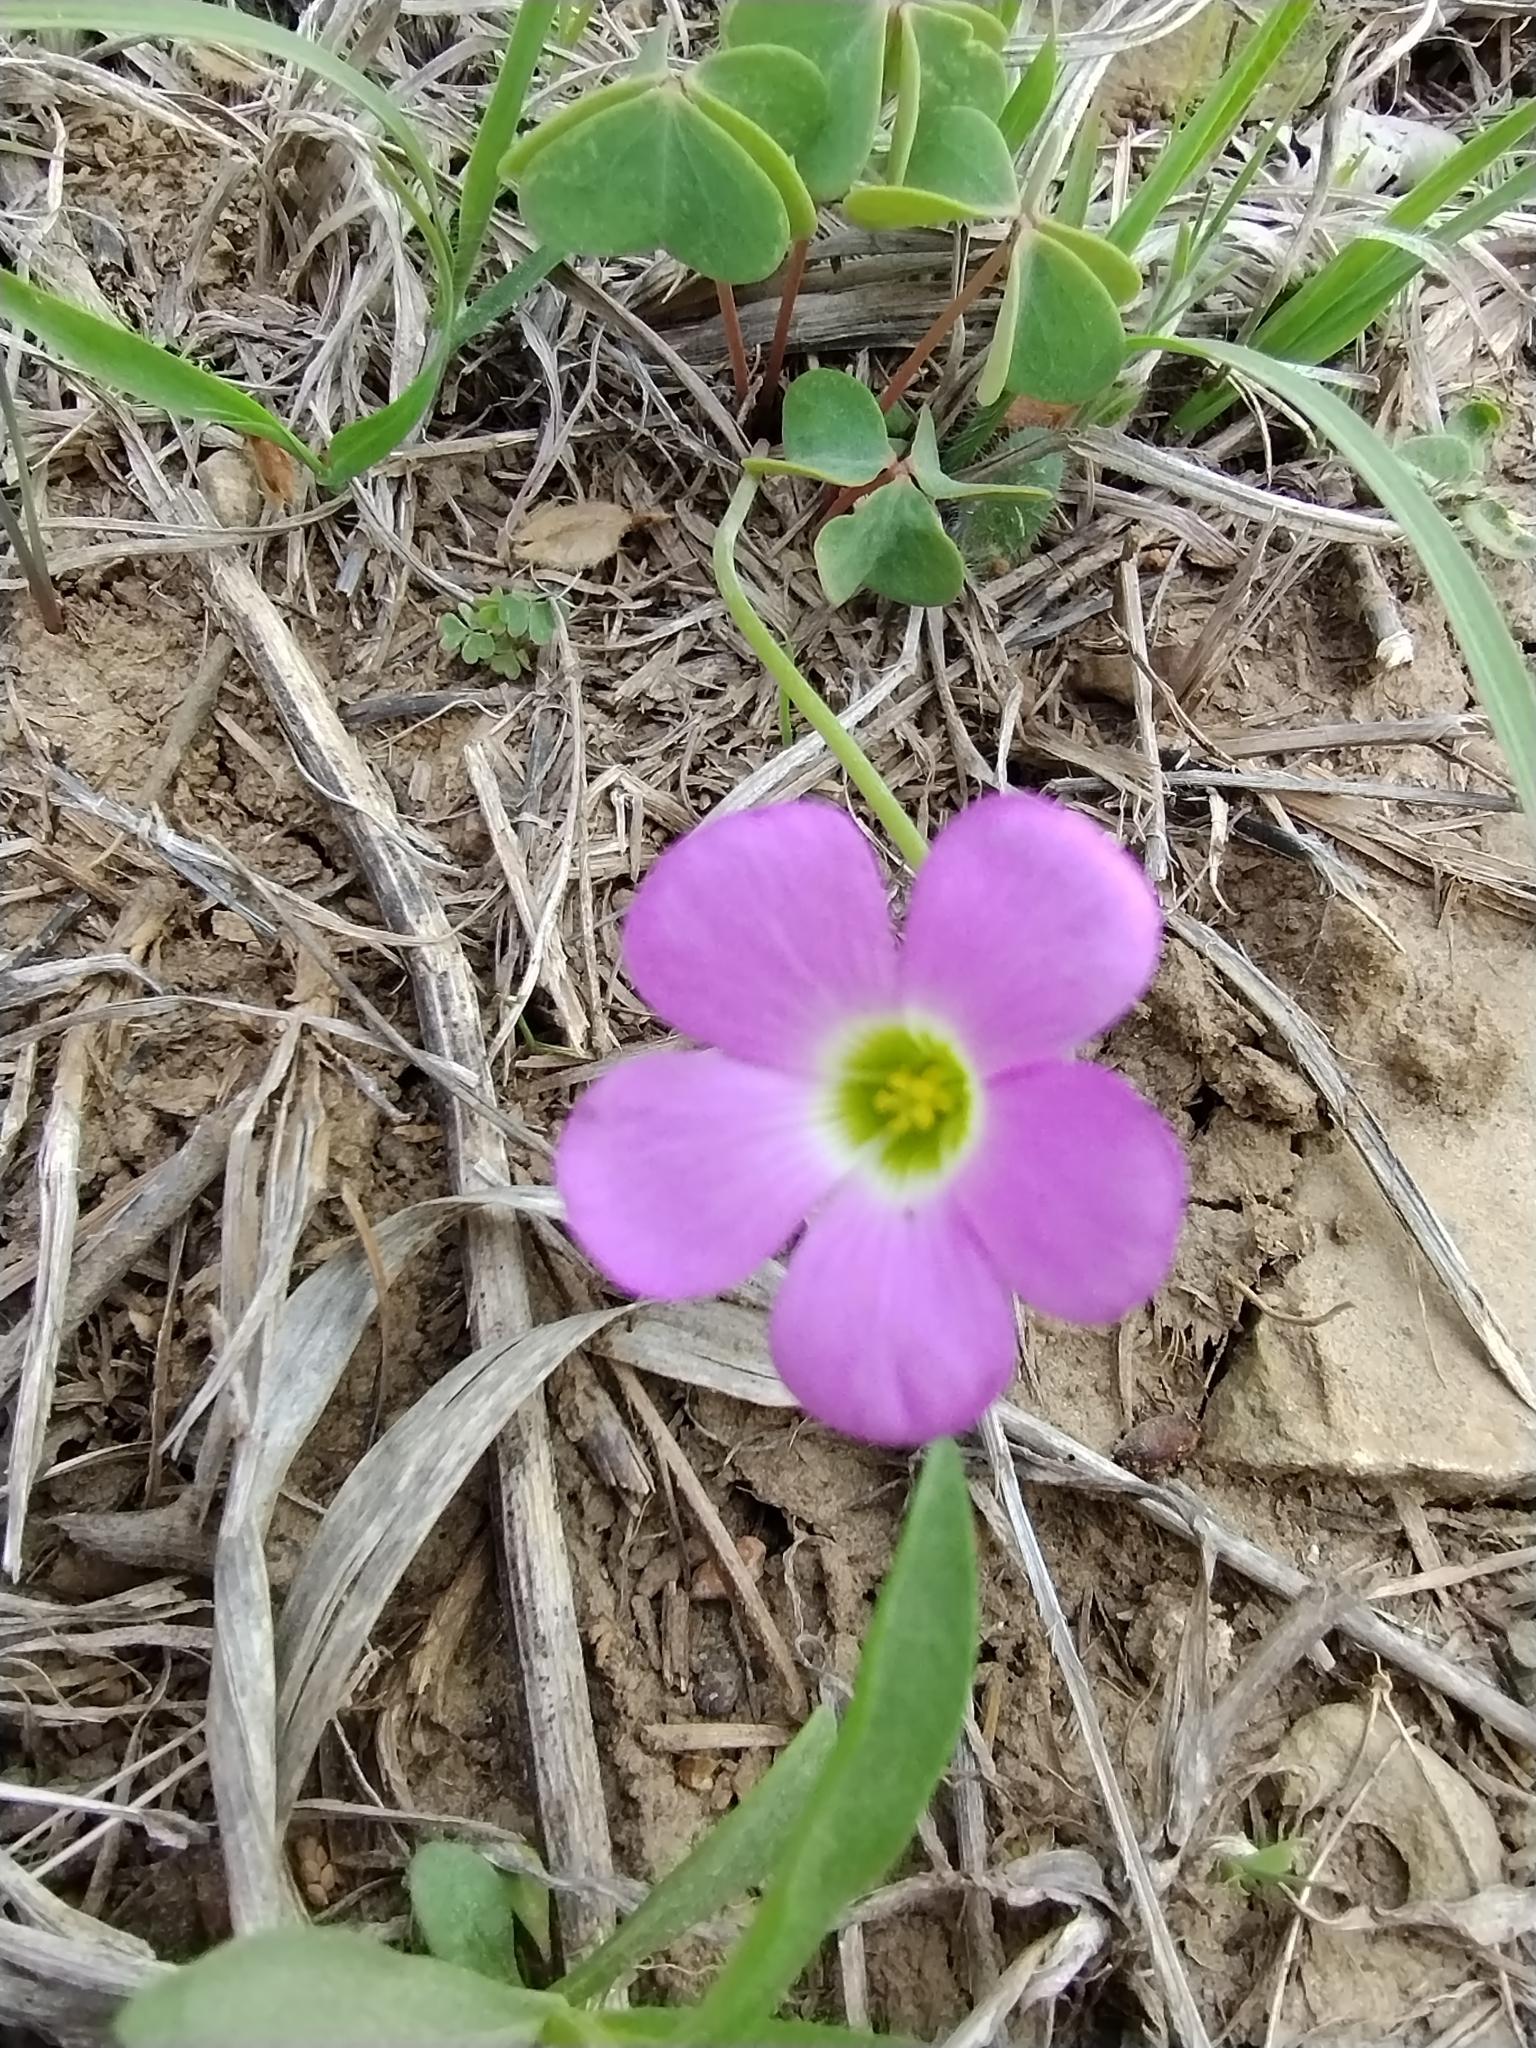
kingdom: Plantae
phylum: Tracheophyta
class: Magnoliopsida
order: Oxalidales
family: Oxalidaceae
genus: Oxalis
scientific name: Oxalis violacea
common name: Violet wood-sorrel
